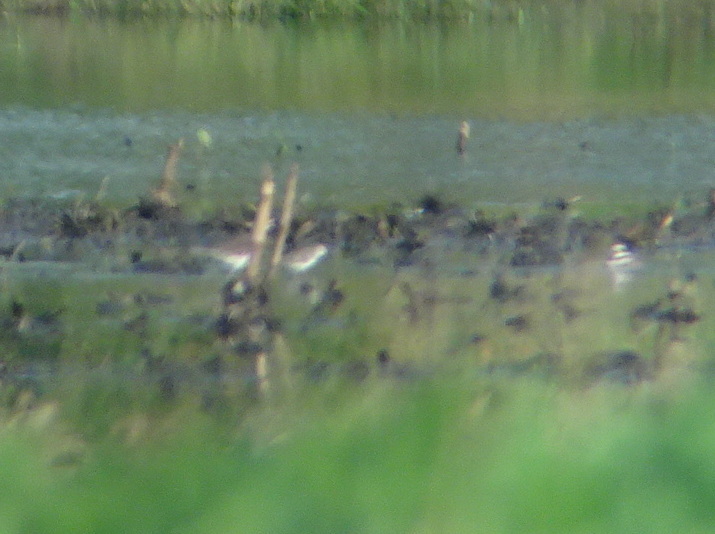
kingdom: Animalia
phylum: Chordata
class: Aves
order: Charadriiformes
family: Scolopacidae
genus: Calidris
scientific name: Calidris
